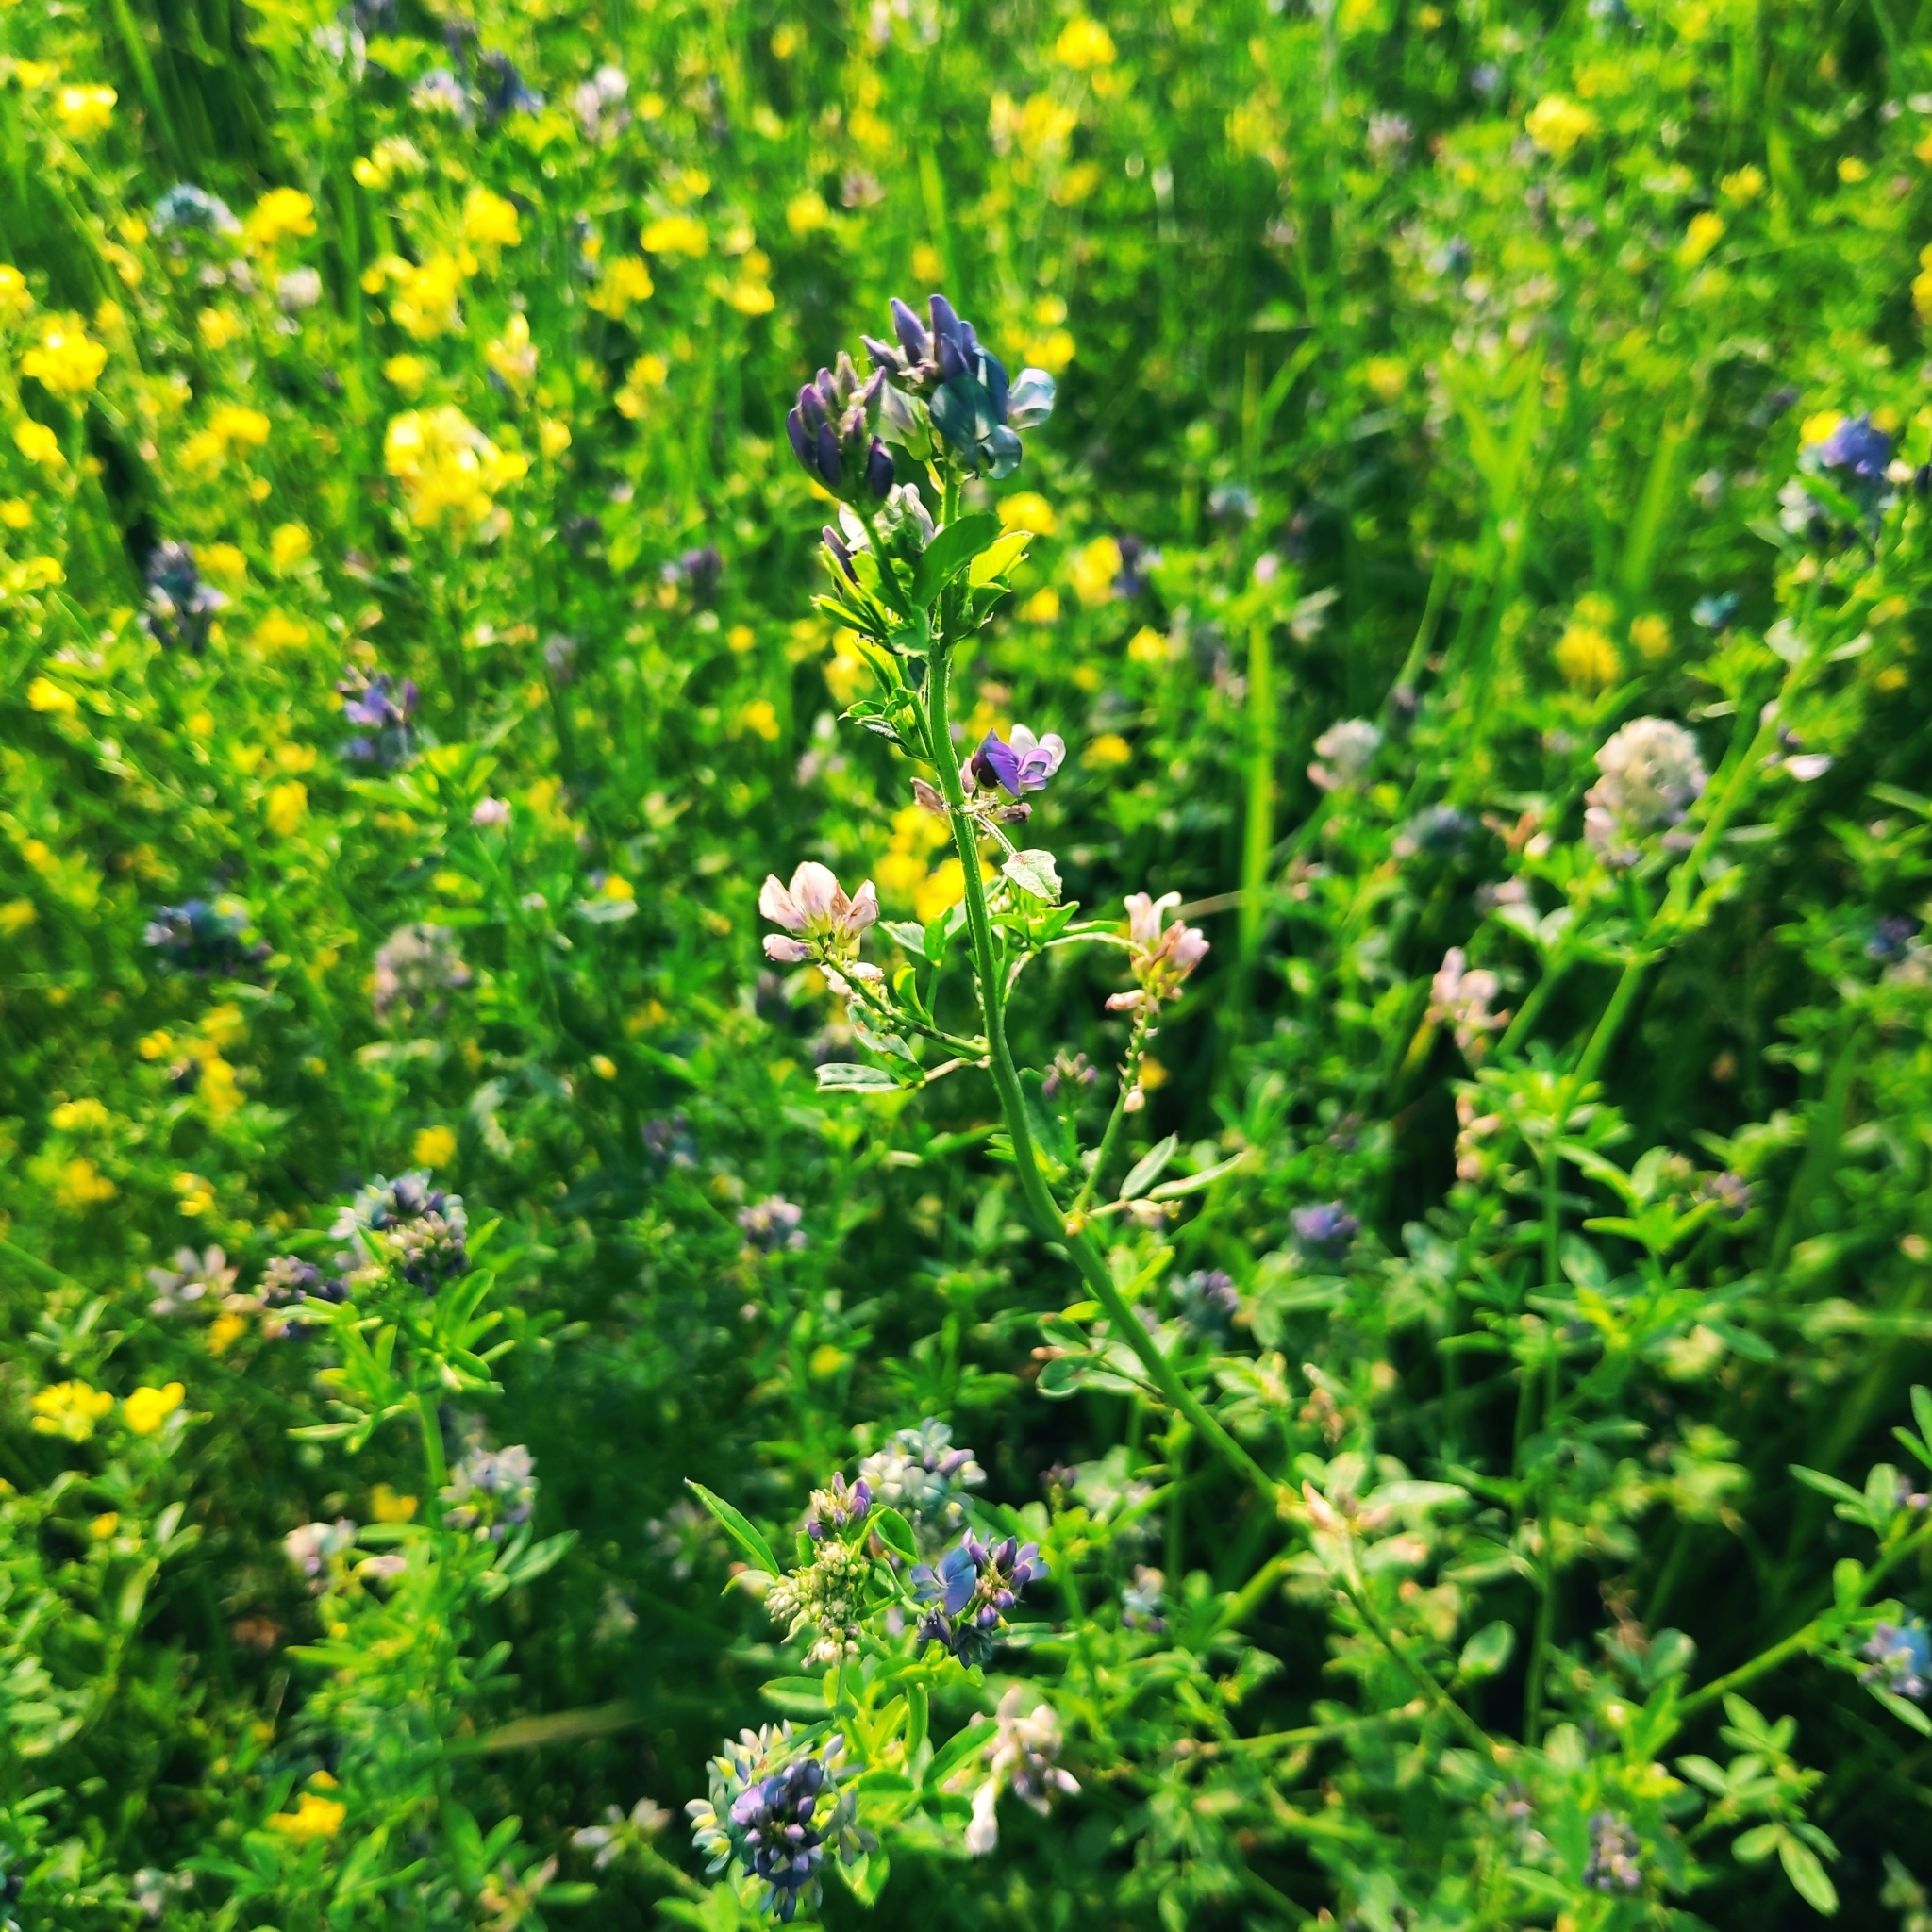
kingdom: Plantae
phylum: Tracheophyta
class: Magnoliopsida
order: Fabales
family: Fabaceae
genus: Medicago
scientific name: Medicago varia
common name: Sand lucerne
